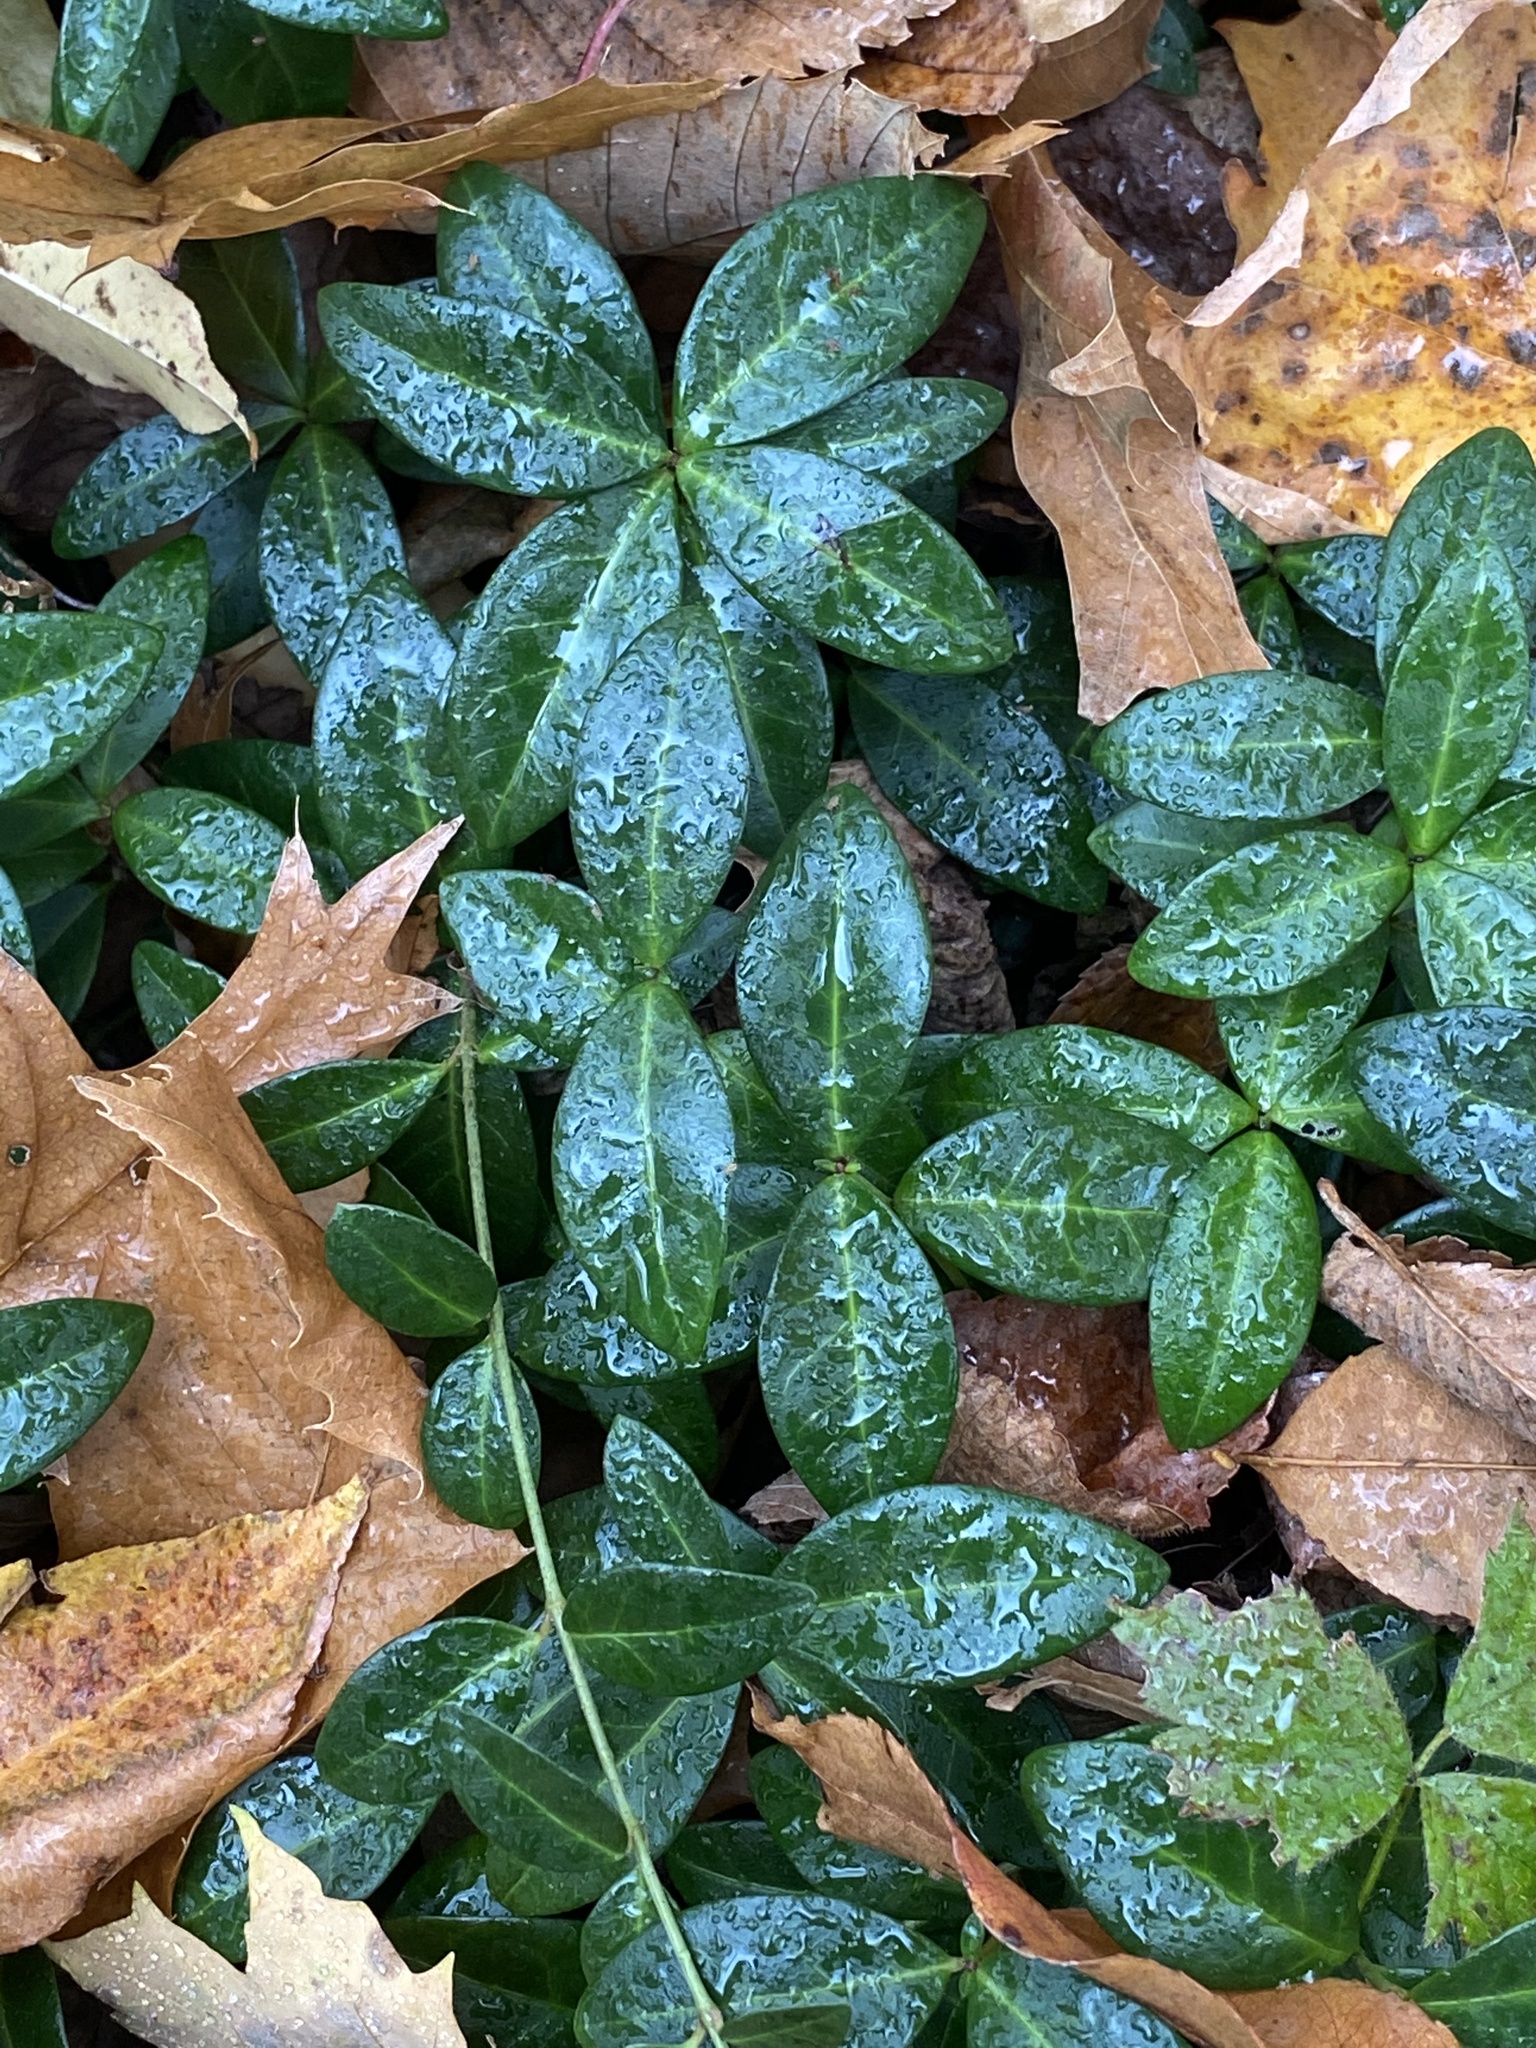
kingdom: Plantae
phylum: Tracheophyta
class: Magnoliopsida
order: Gentianales
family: Apocynaceae
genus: Vinca
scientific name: Vinca minor
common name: Lesser periwinkle
